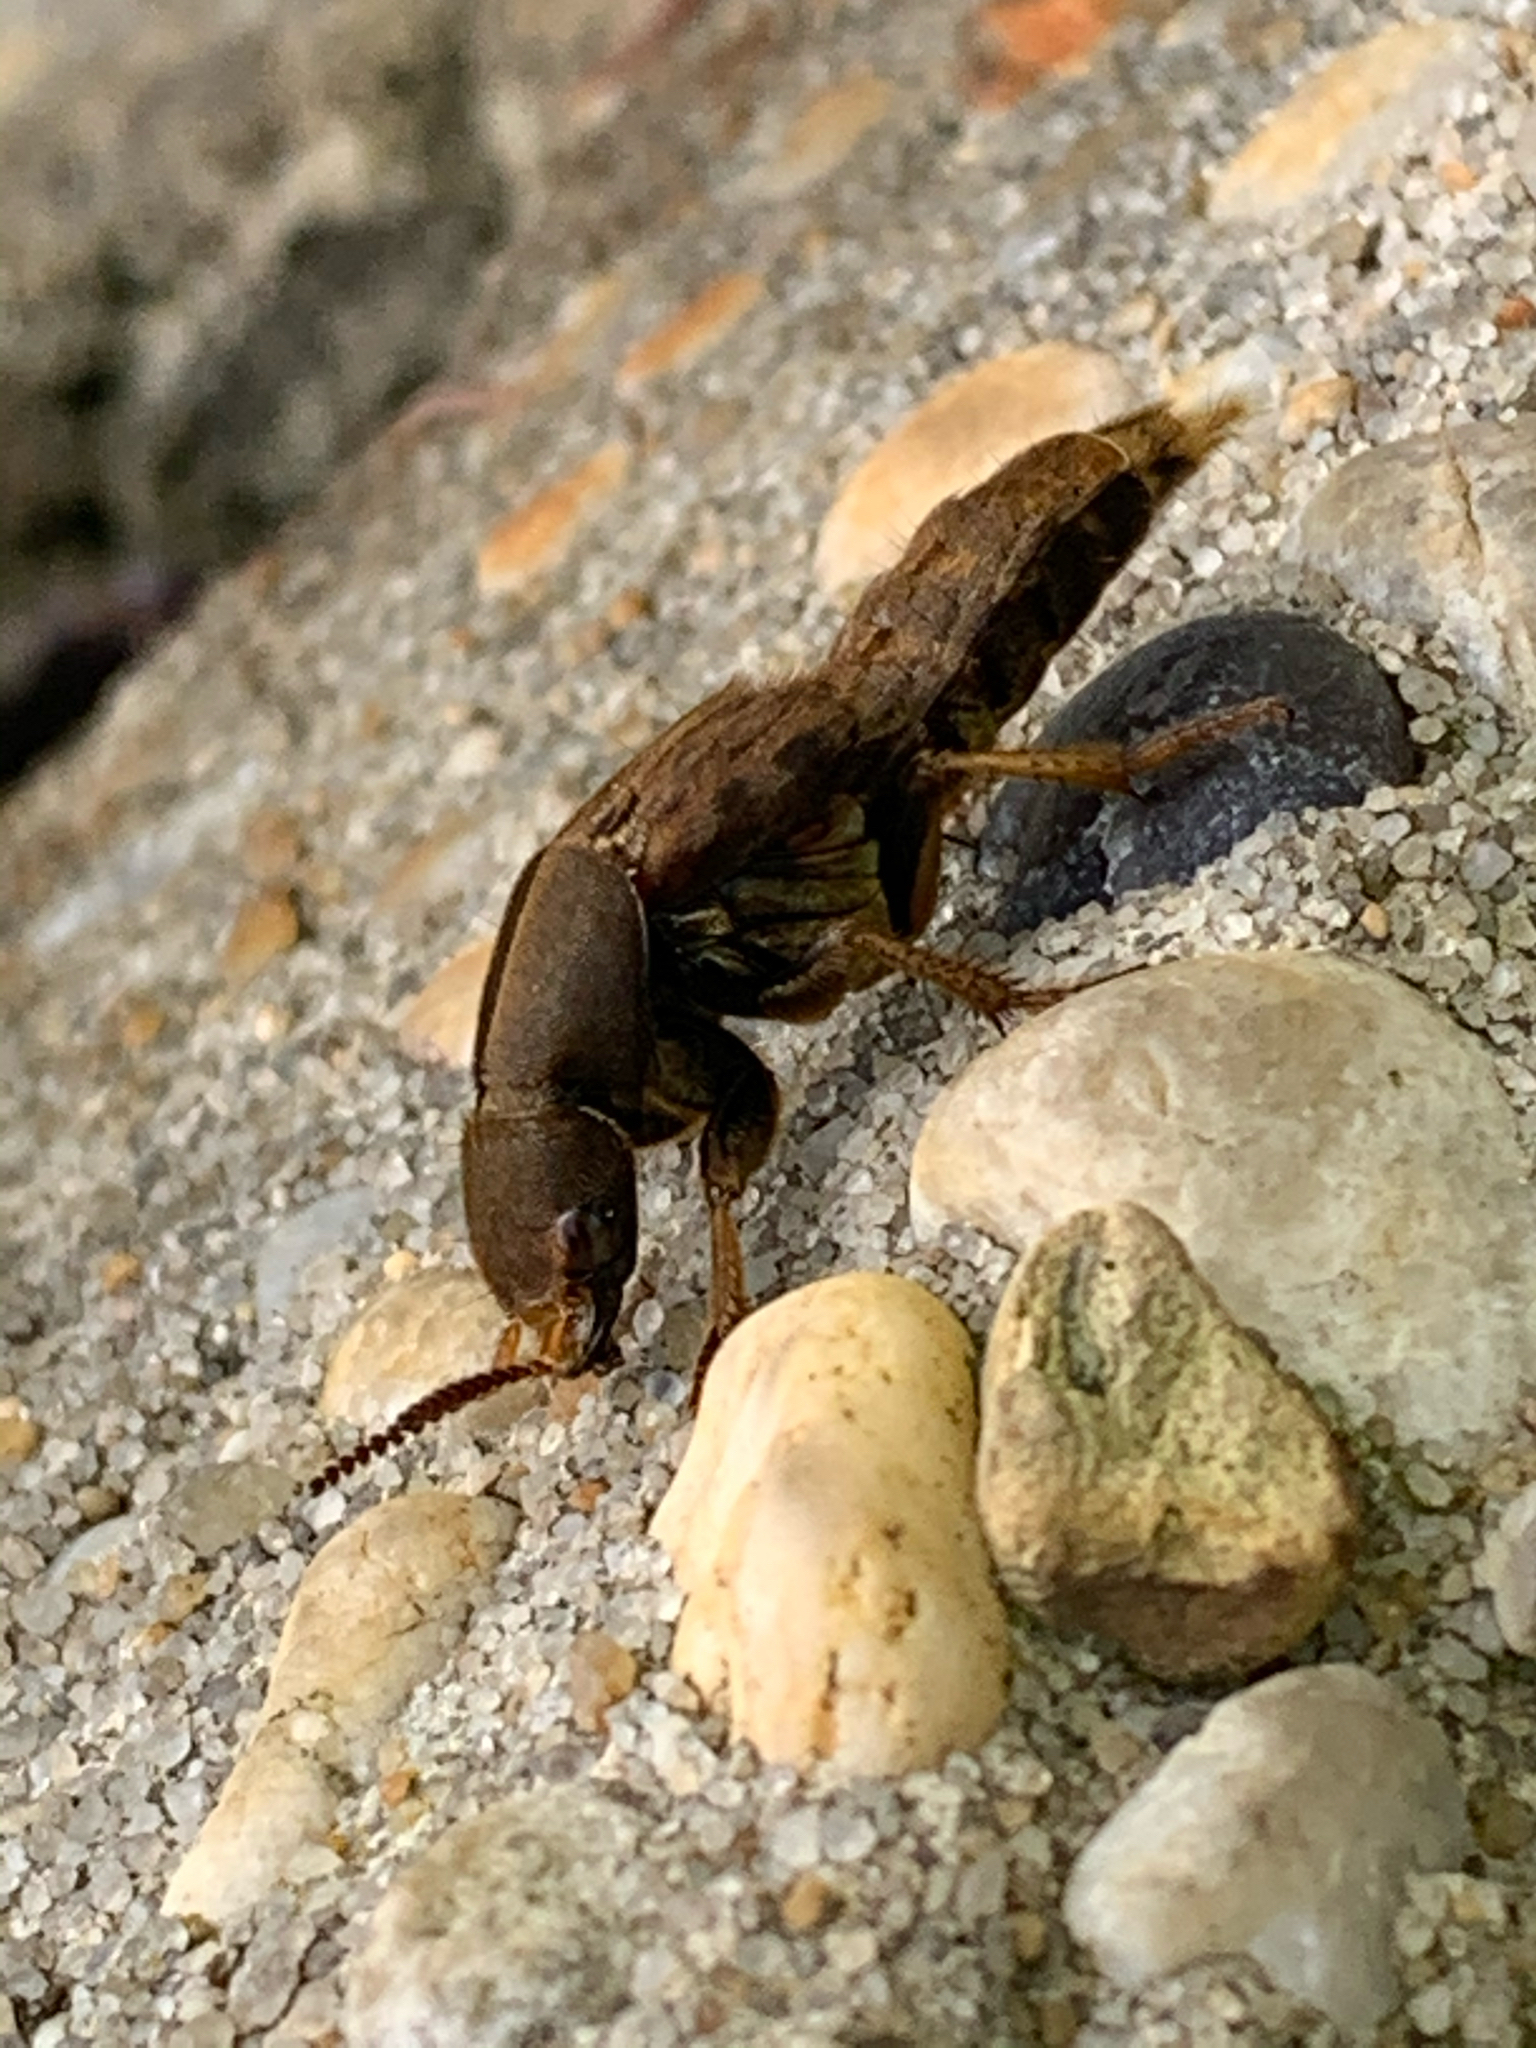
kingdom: Animalia
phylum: Arthropoda
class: Insecta
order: Coleoptera
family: Staphylinidae
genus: Platydracus
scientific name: Platydracus maculosus
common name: Brown rove beetle
